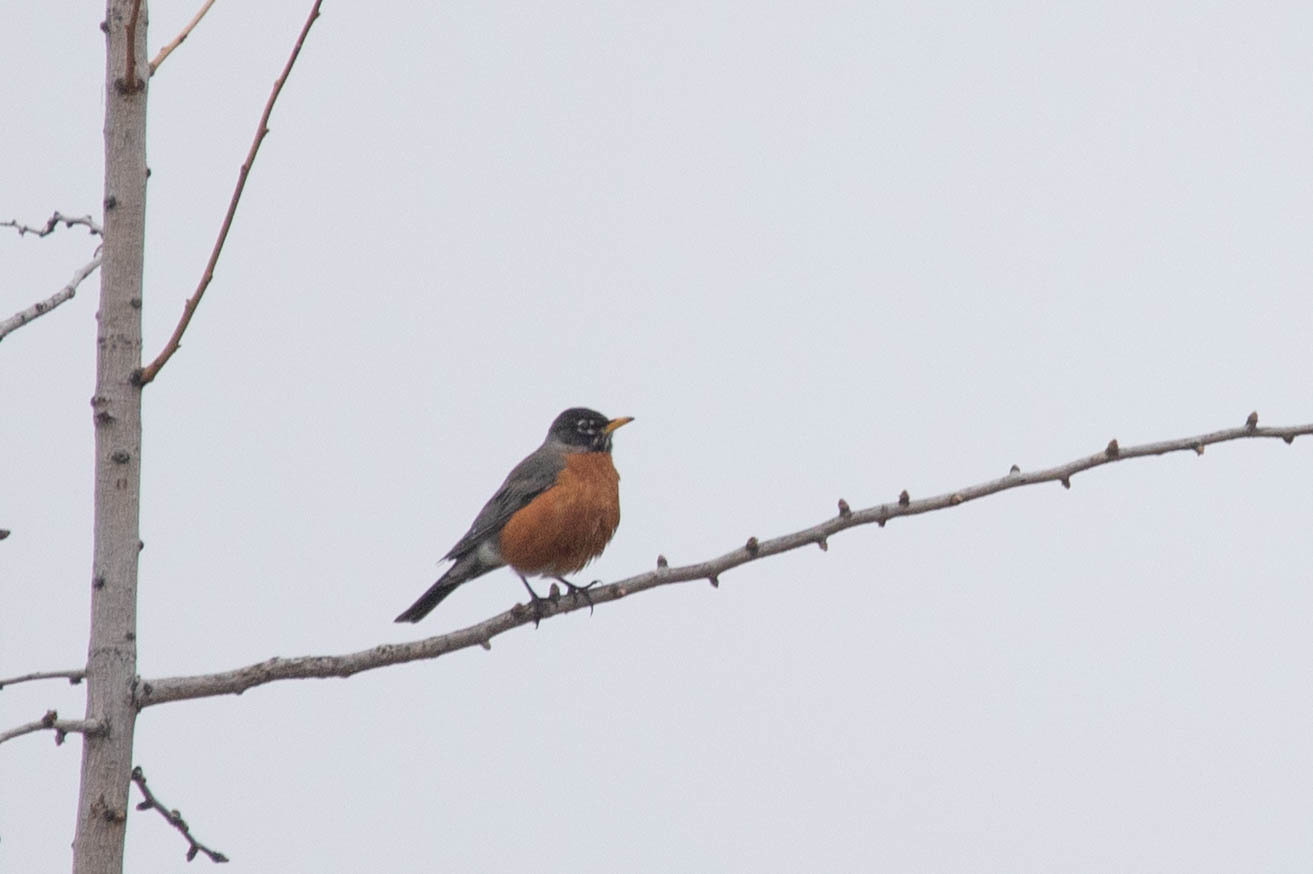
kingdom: Animalia
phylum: Chordata
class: Aves
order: Passeriformes
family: Turdidae
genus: Turdus
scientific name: Turdus migratorius
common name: American robin
